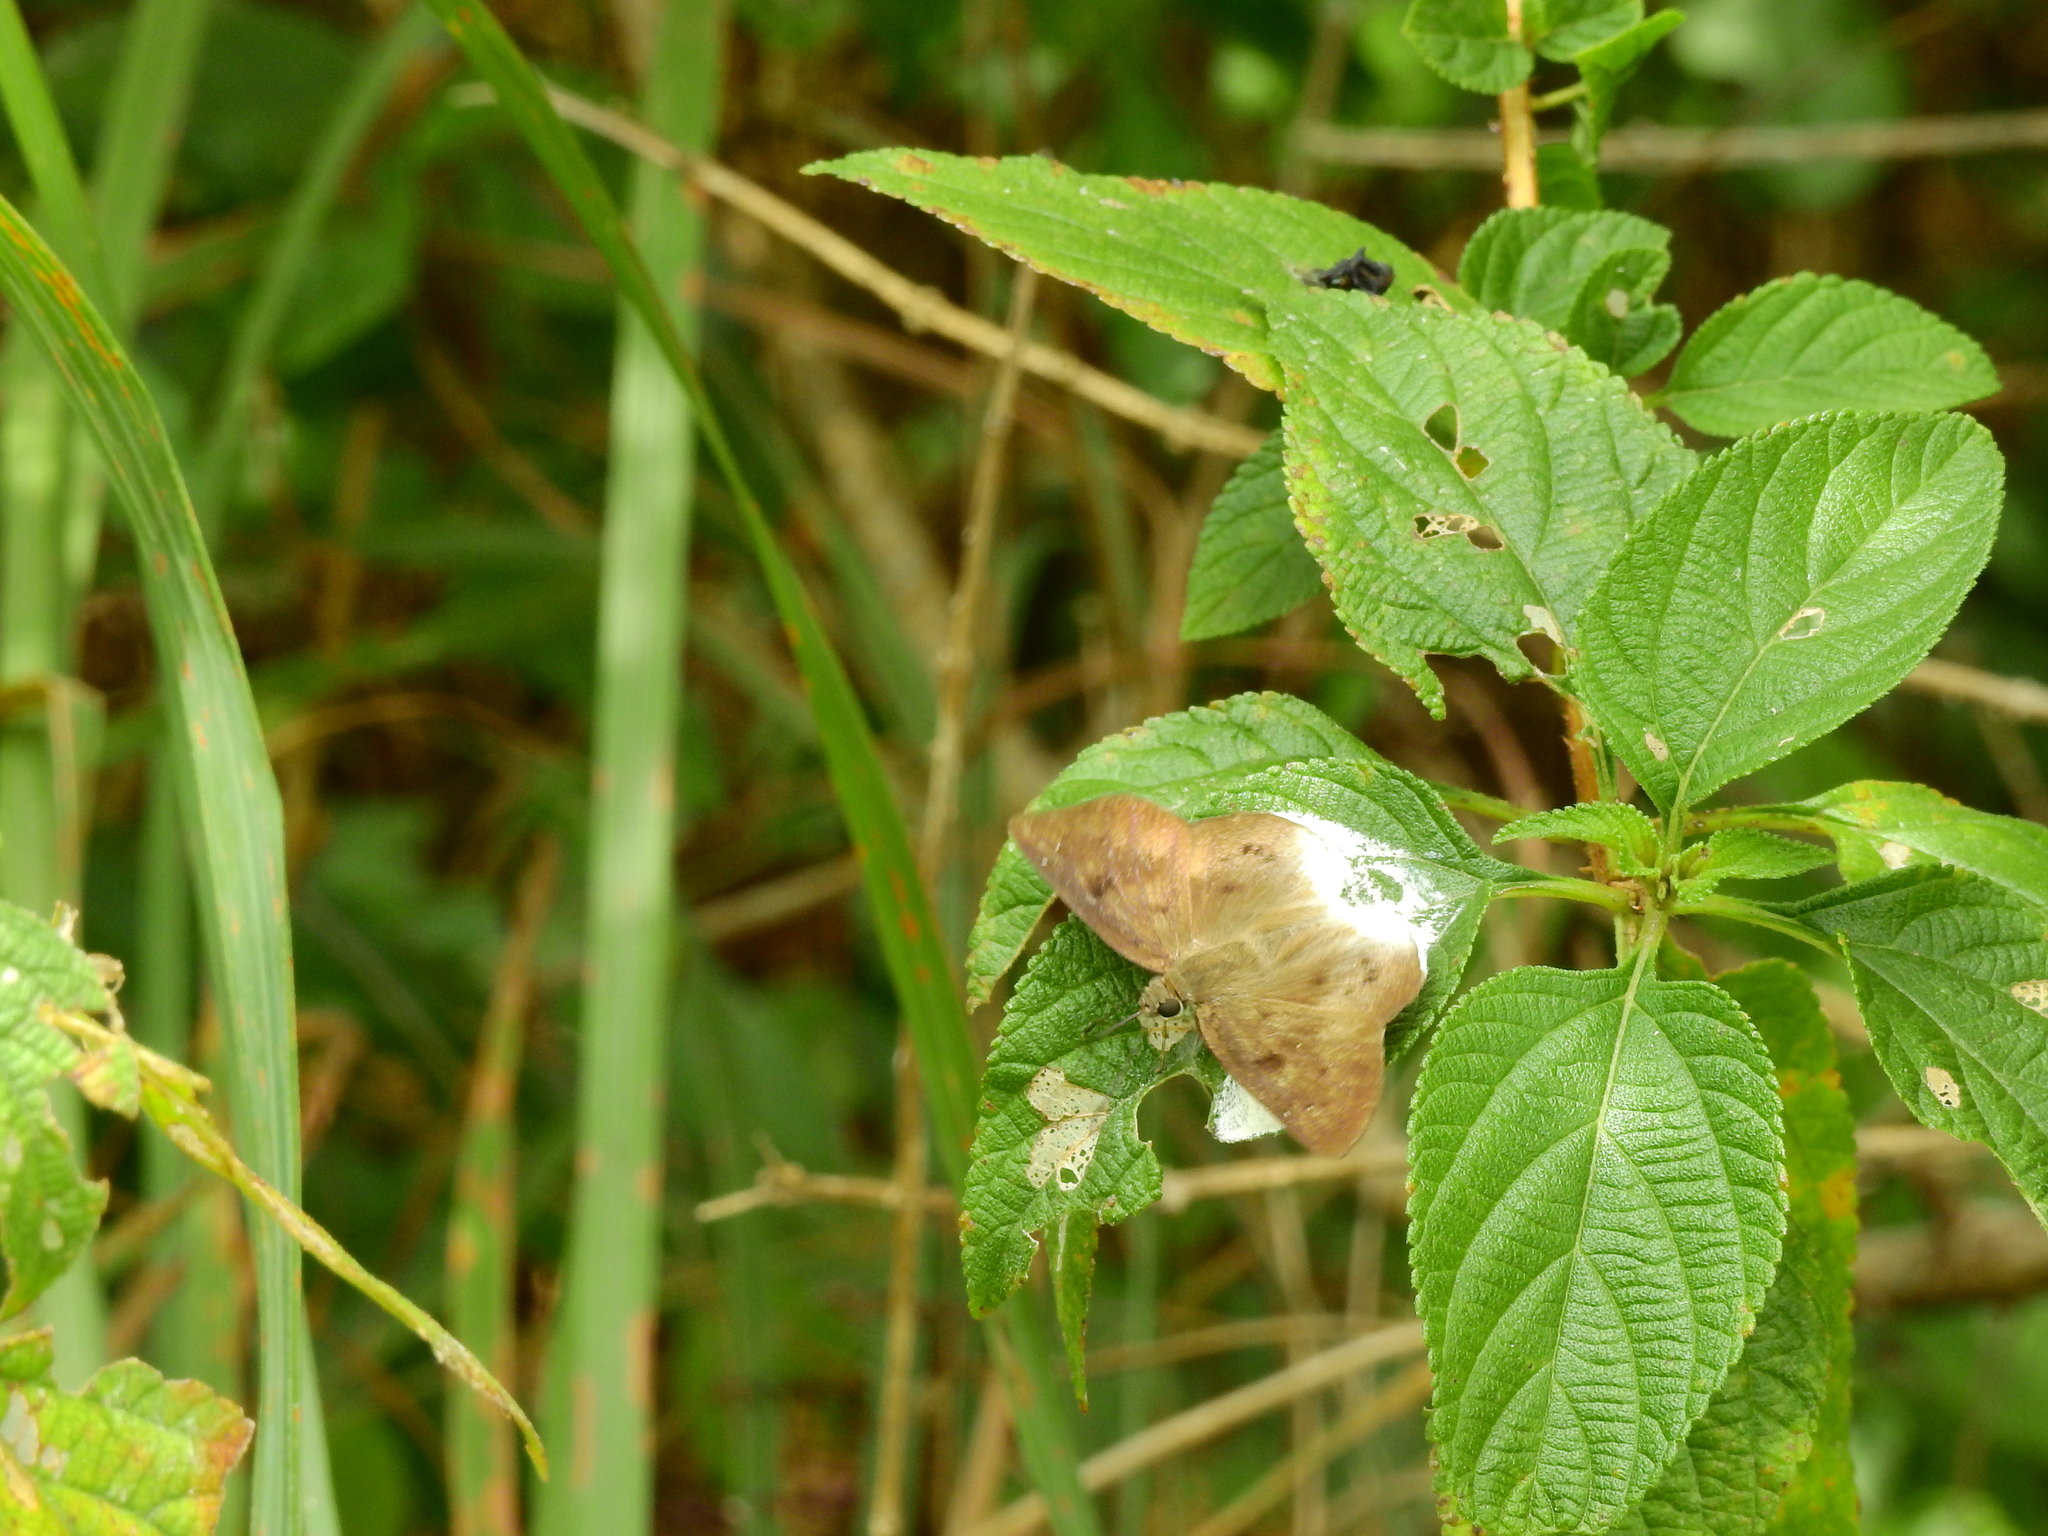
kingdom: Animalia
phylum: Arthropoda
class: Insecta
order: Lepidoptera
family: Hesperiidae
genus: Tagiades
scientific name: Tagiades gana
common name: Suffused snow flat
